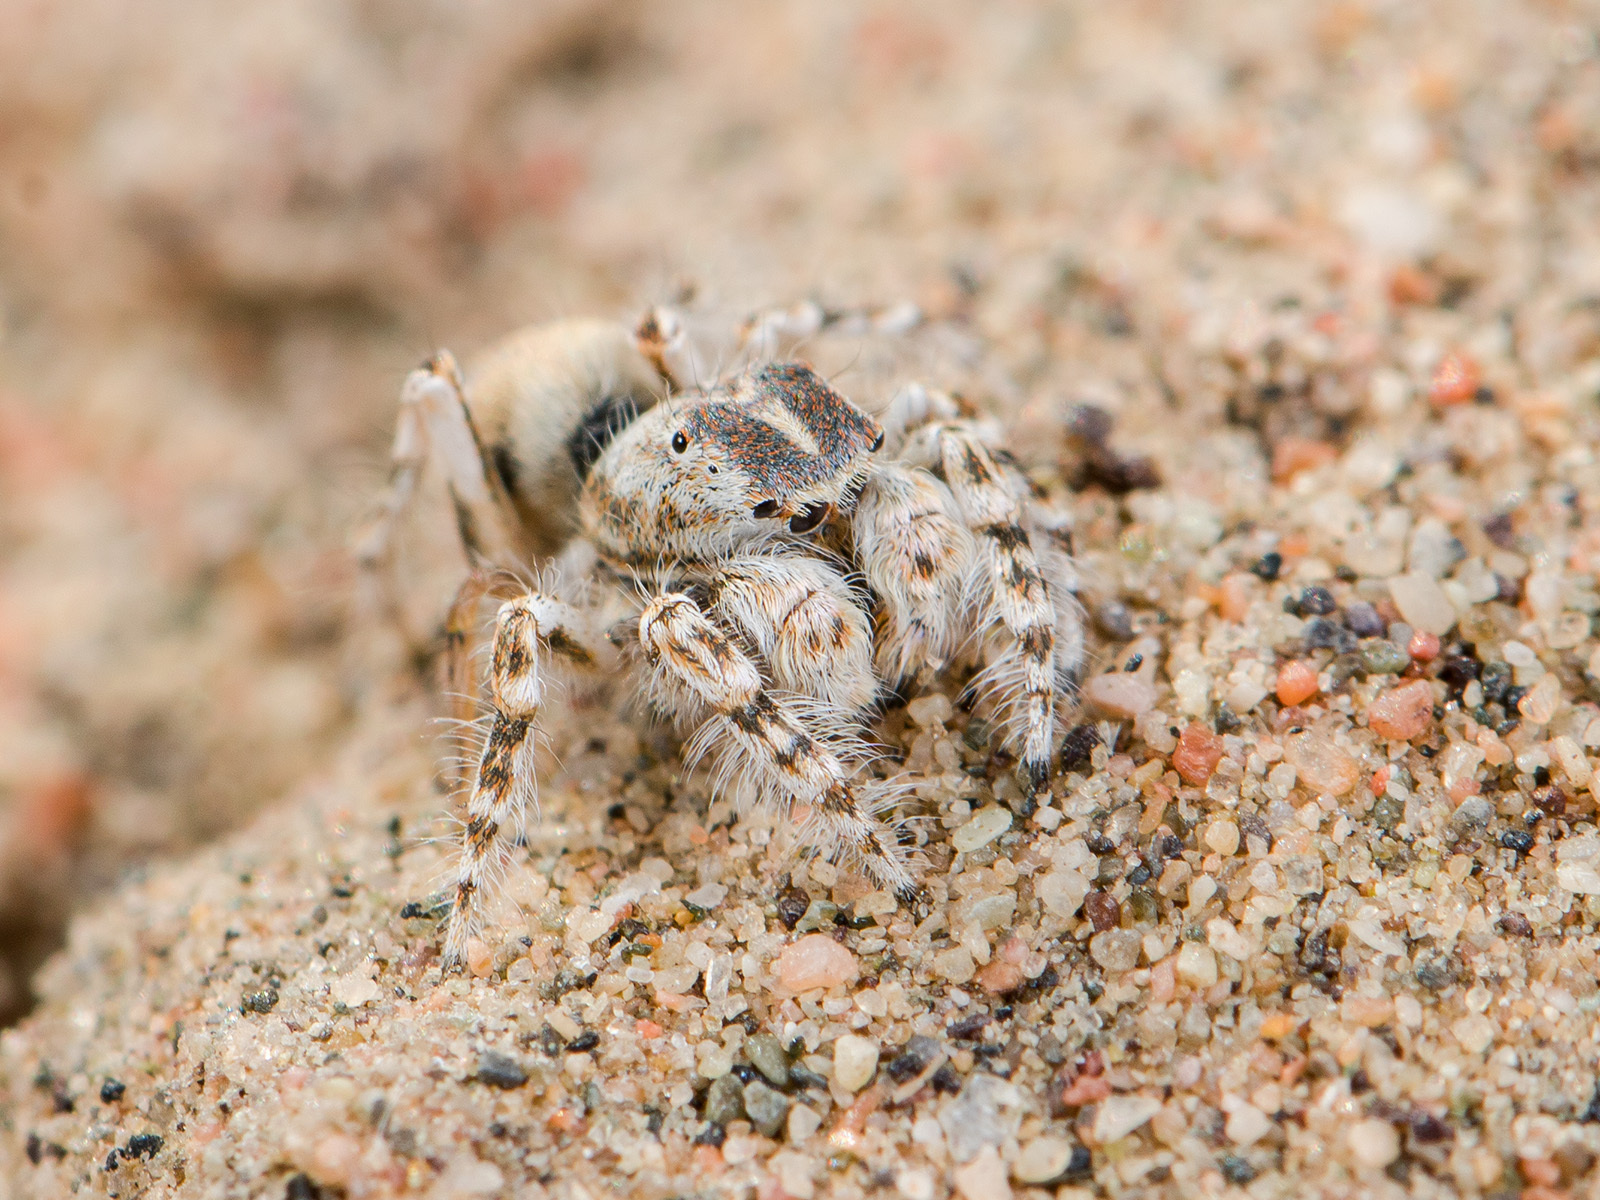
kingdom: Animalia
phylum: Arthropoda
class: Arachnida
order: Araneae
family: Salticidae
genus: Yllenus
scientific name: Yllenus turkestanicus
